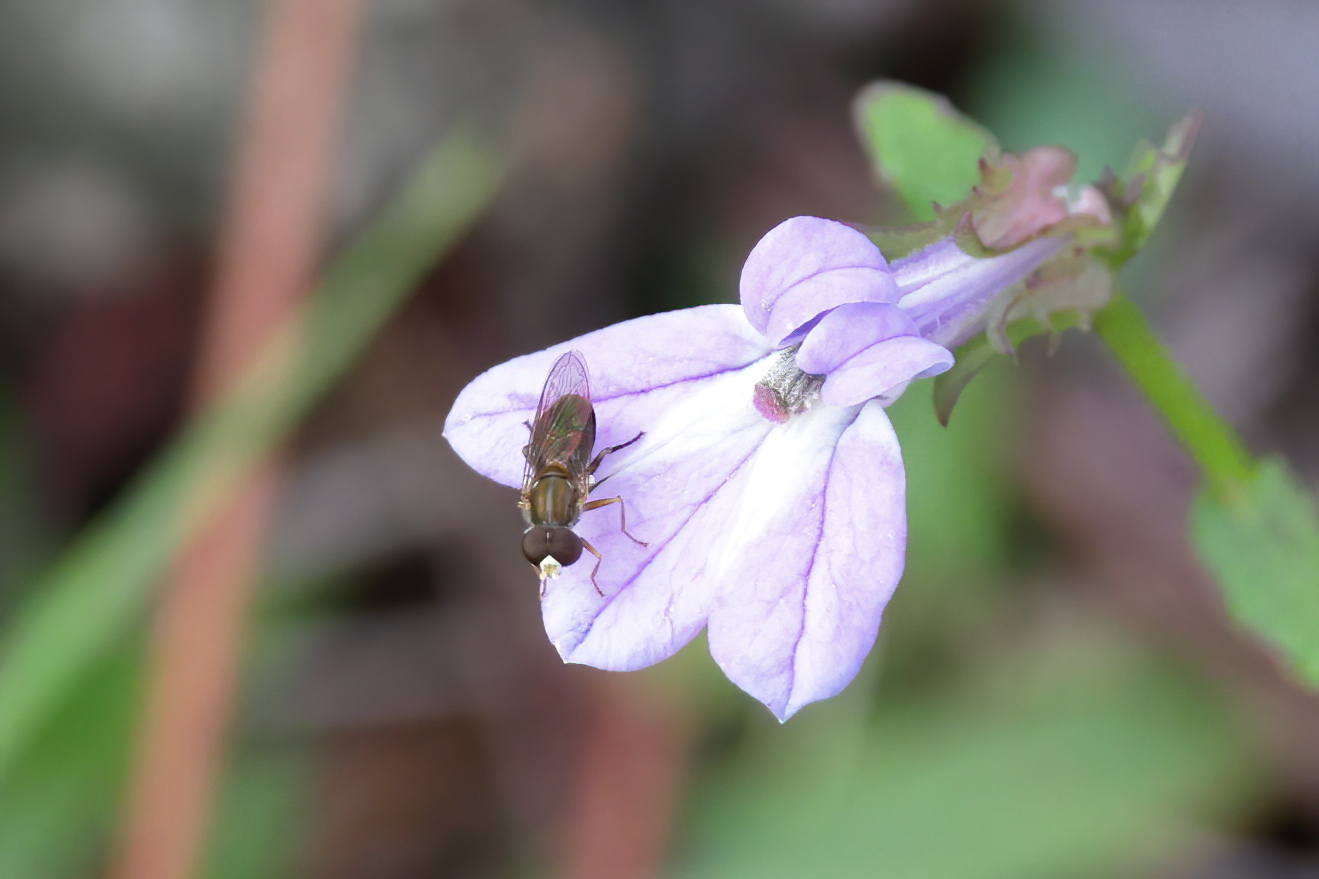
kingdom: Animalia
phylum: Arthropoda
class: Insecta
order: Diptera
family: Syrphidae
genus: Toxomerus
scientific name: Toxomerus marginatus
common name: Syrphid fly
